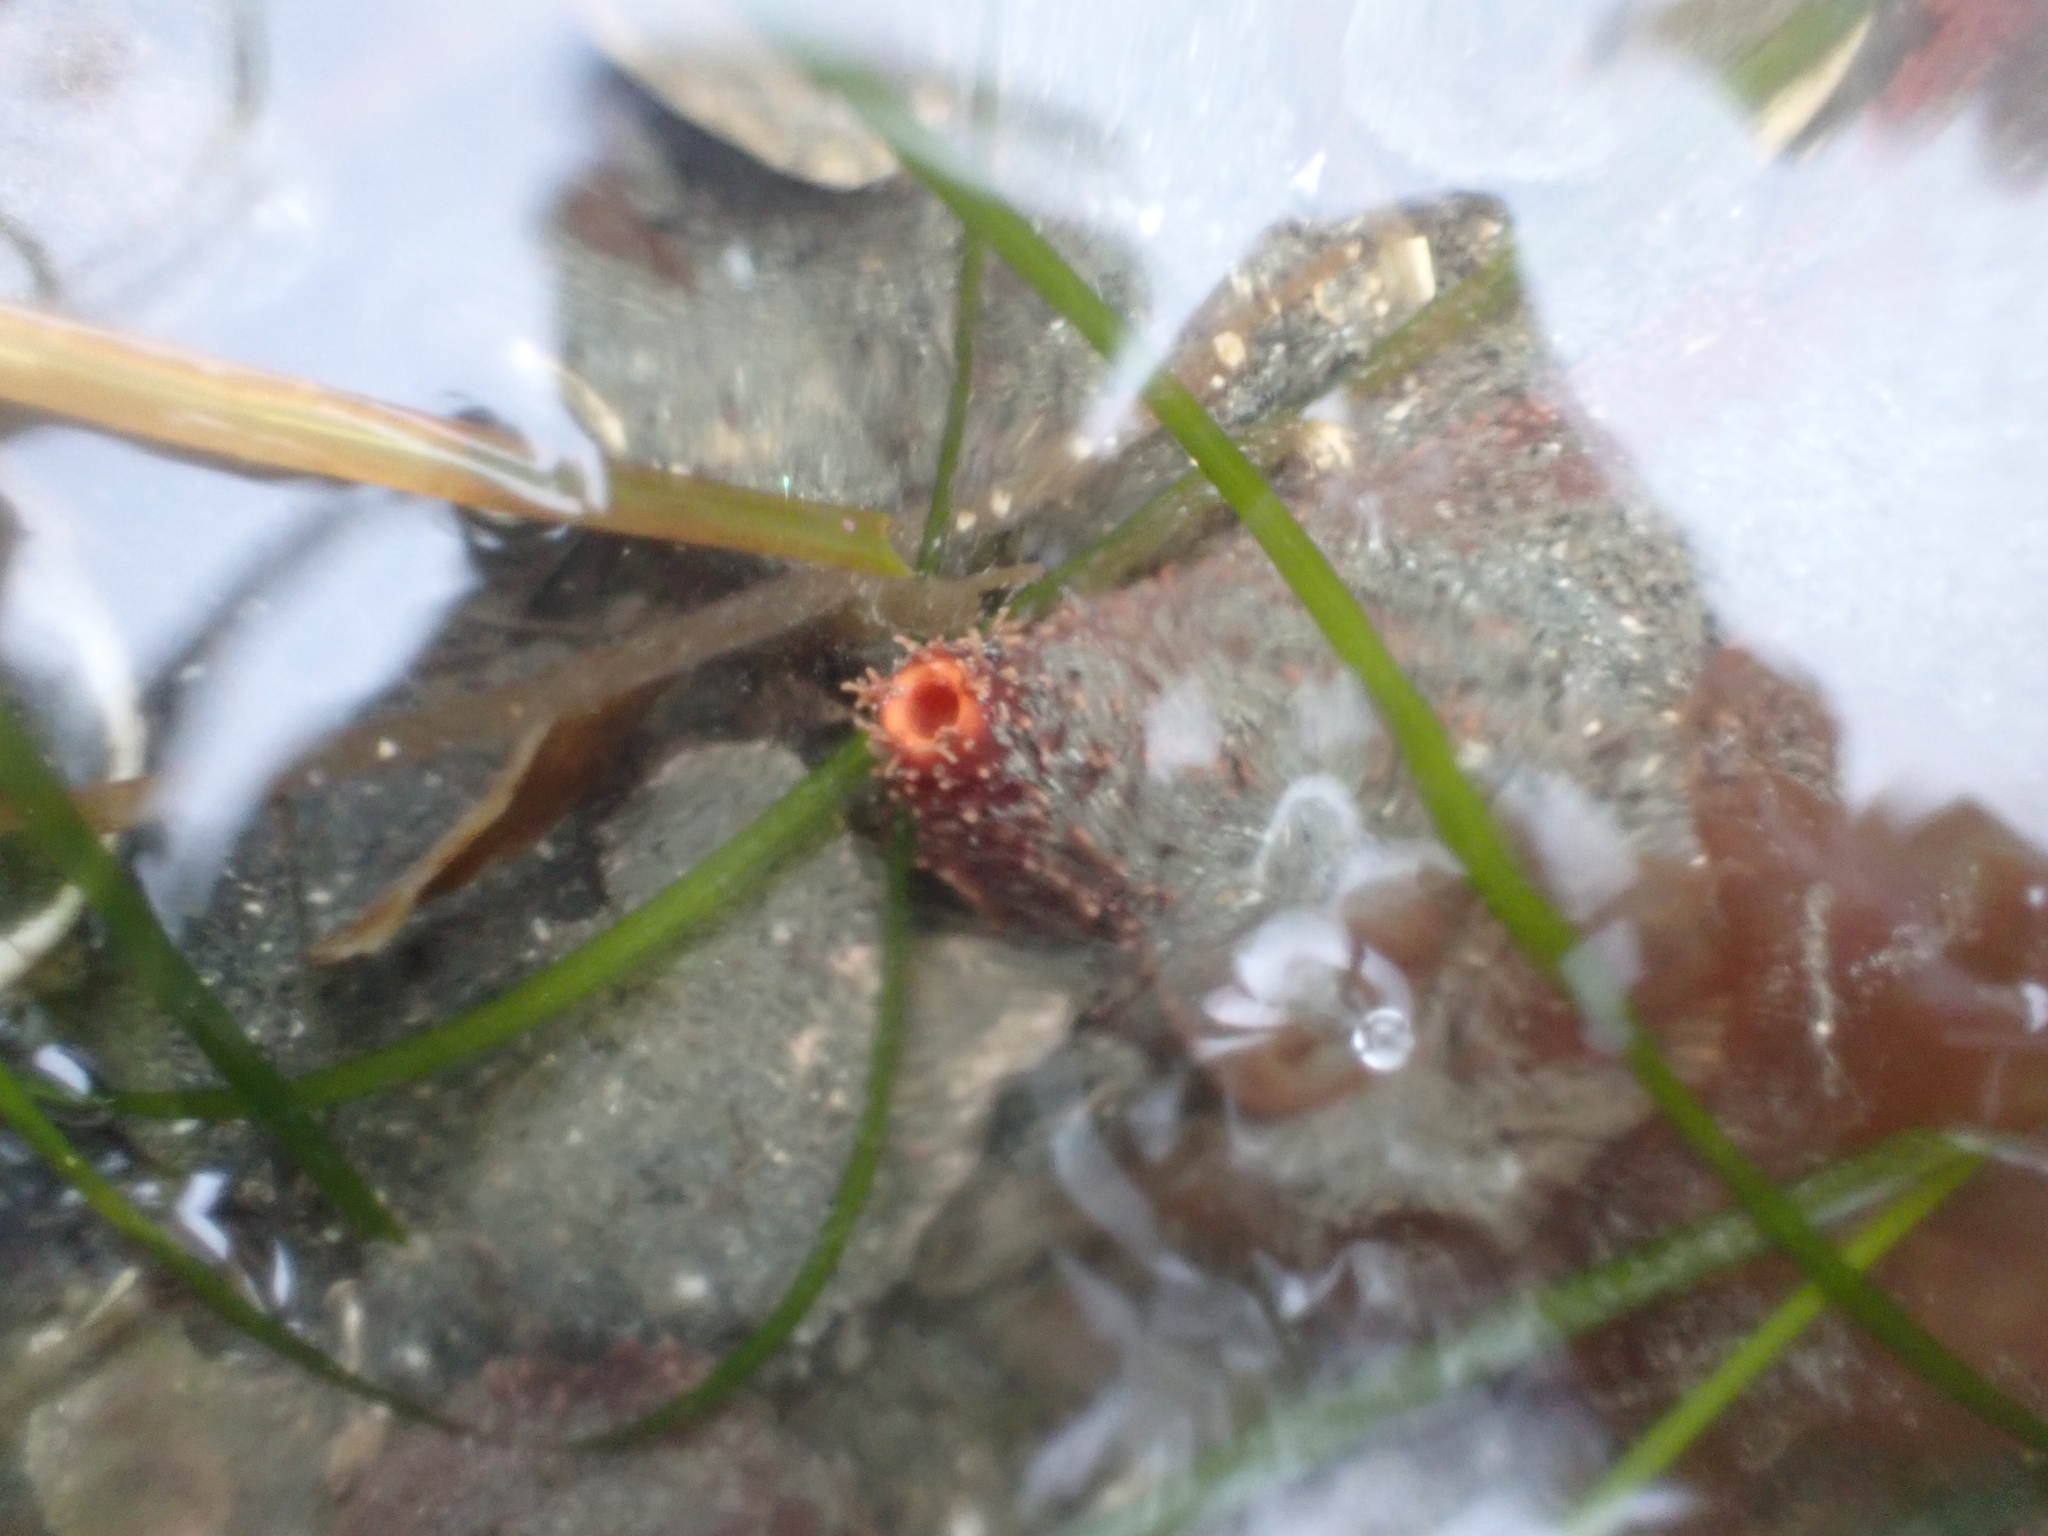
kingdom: Animalia
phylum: Echinodermata
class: Holothuroidea
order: Dendrochirotida
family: Cucumariidae
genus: Cucumaria
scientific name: Cucumaria miniata
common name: Orange sea cucumber
